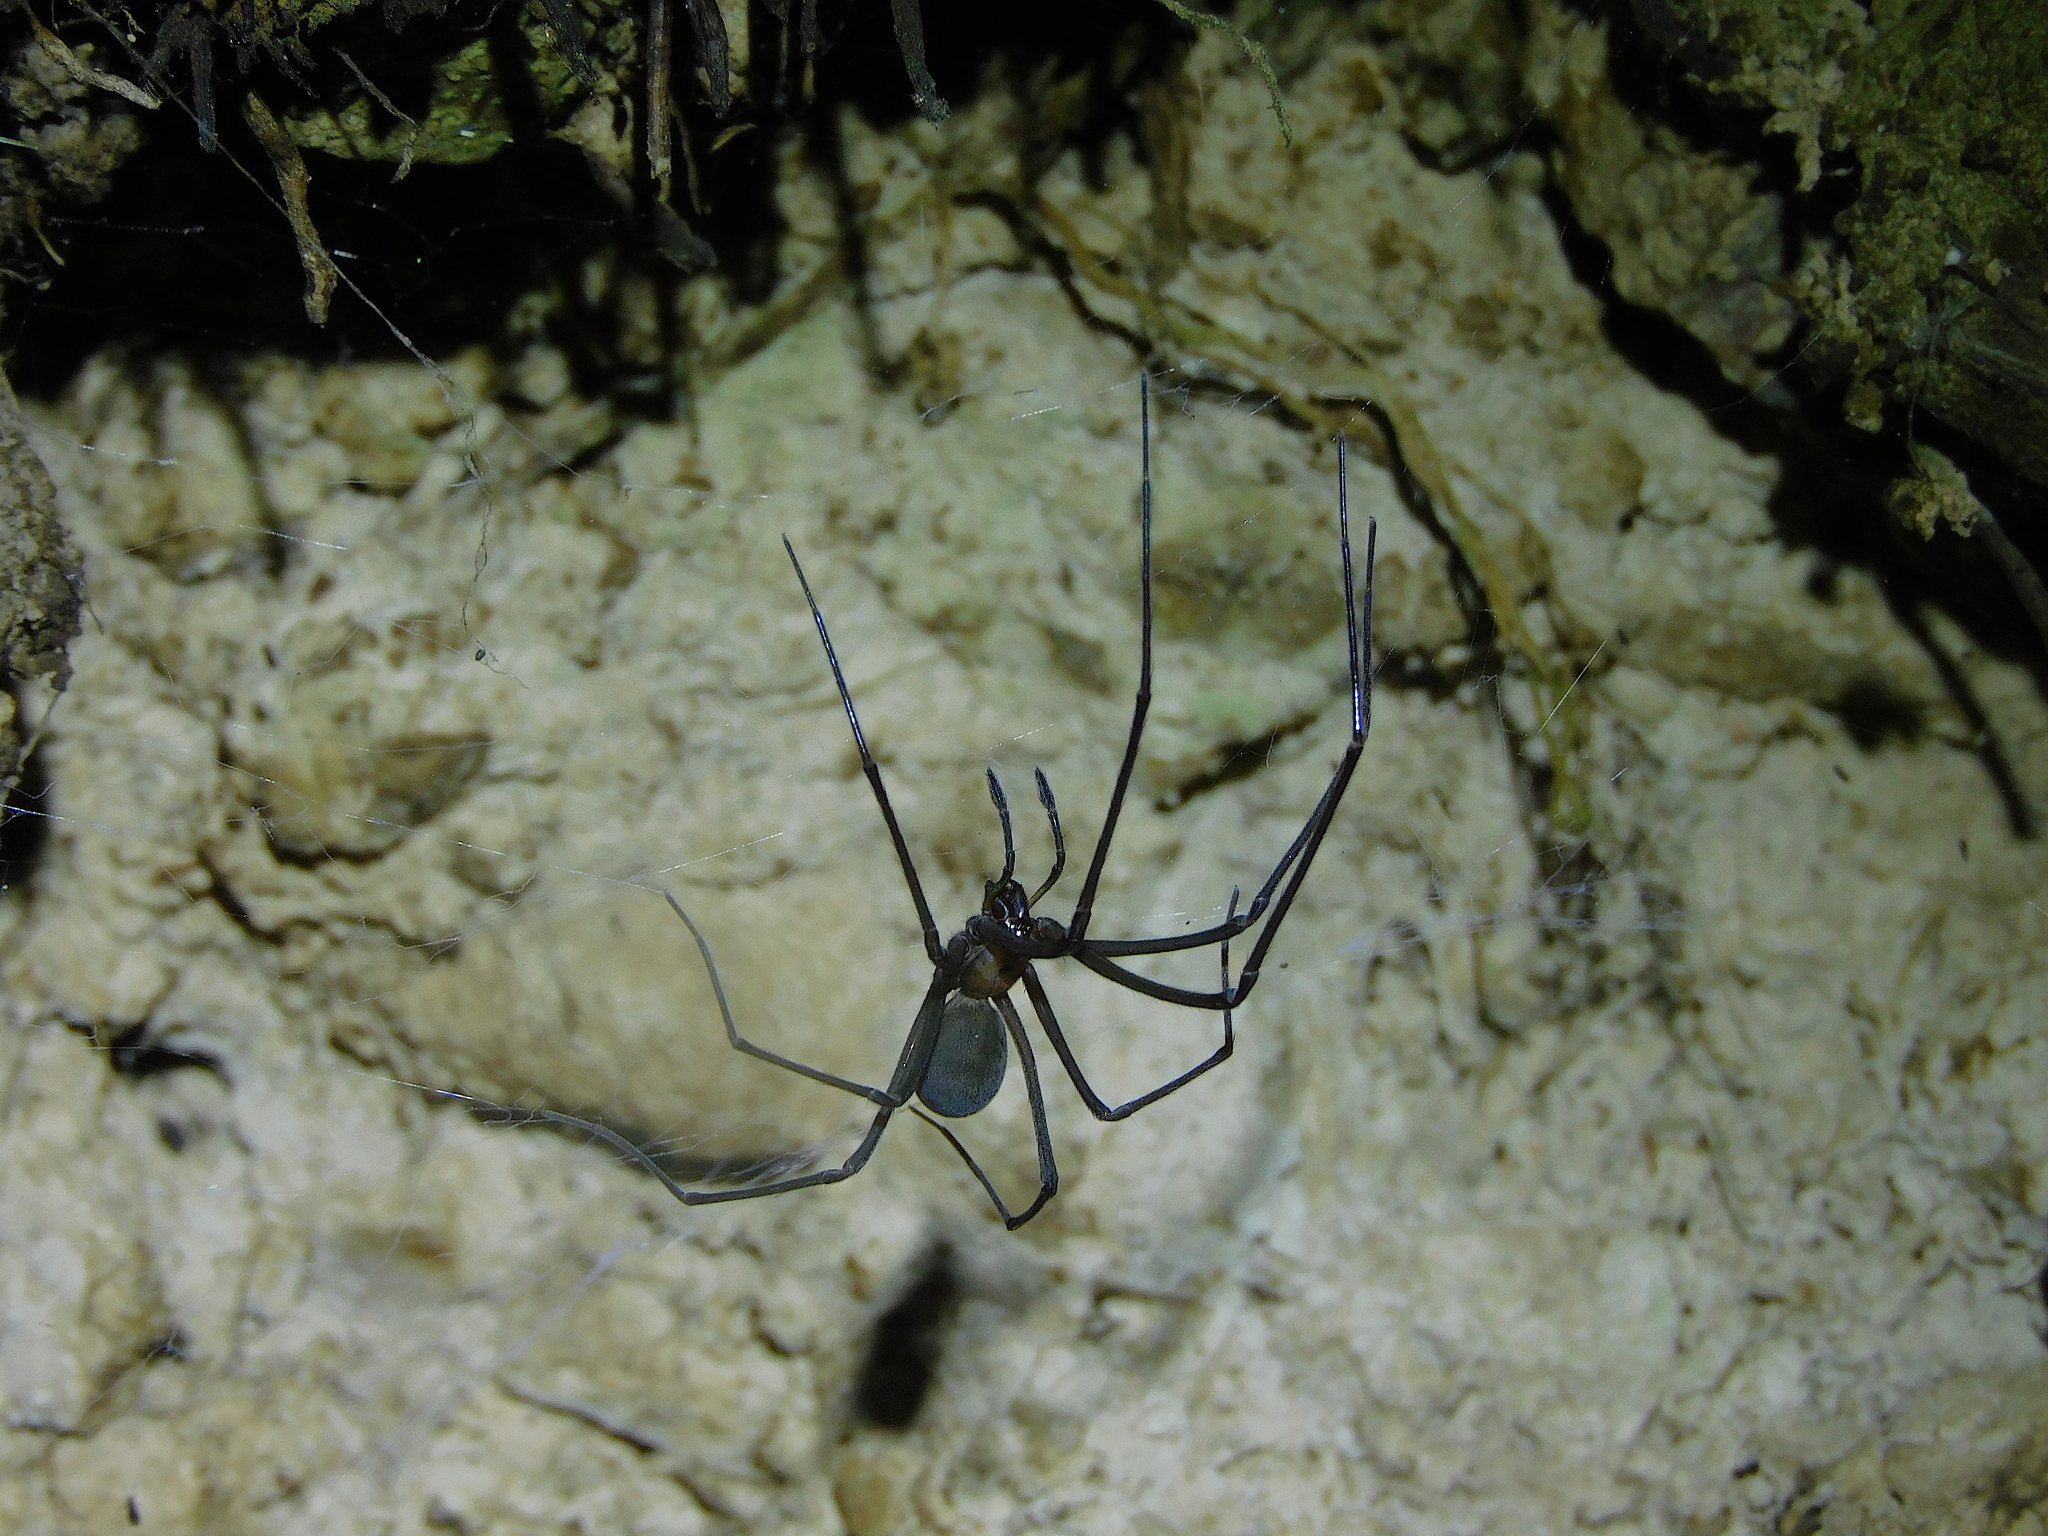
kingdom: Animalia
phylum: Arthropoda
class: Arachnida
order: Araneae
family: Gradungulidae
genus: Hickmania
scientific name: Hickmania troglodytes
